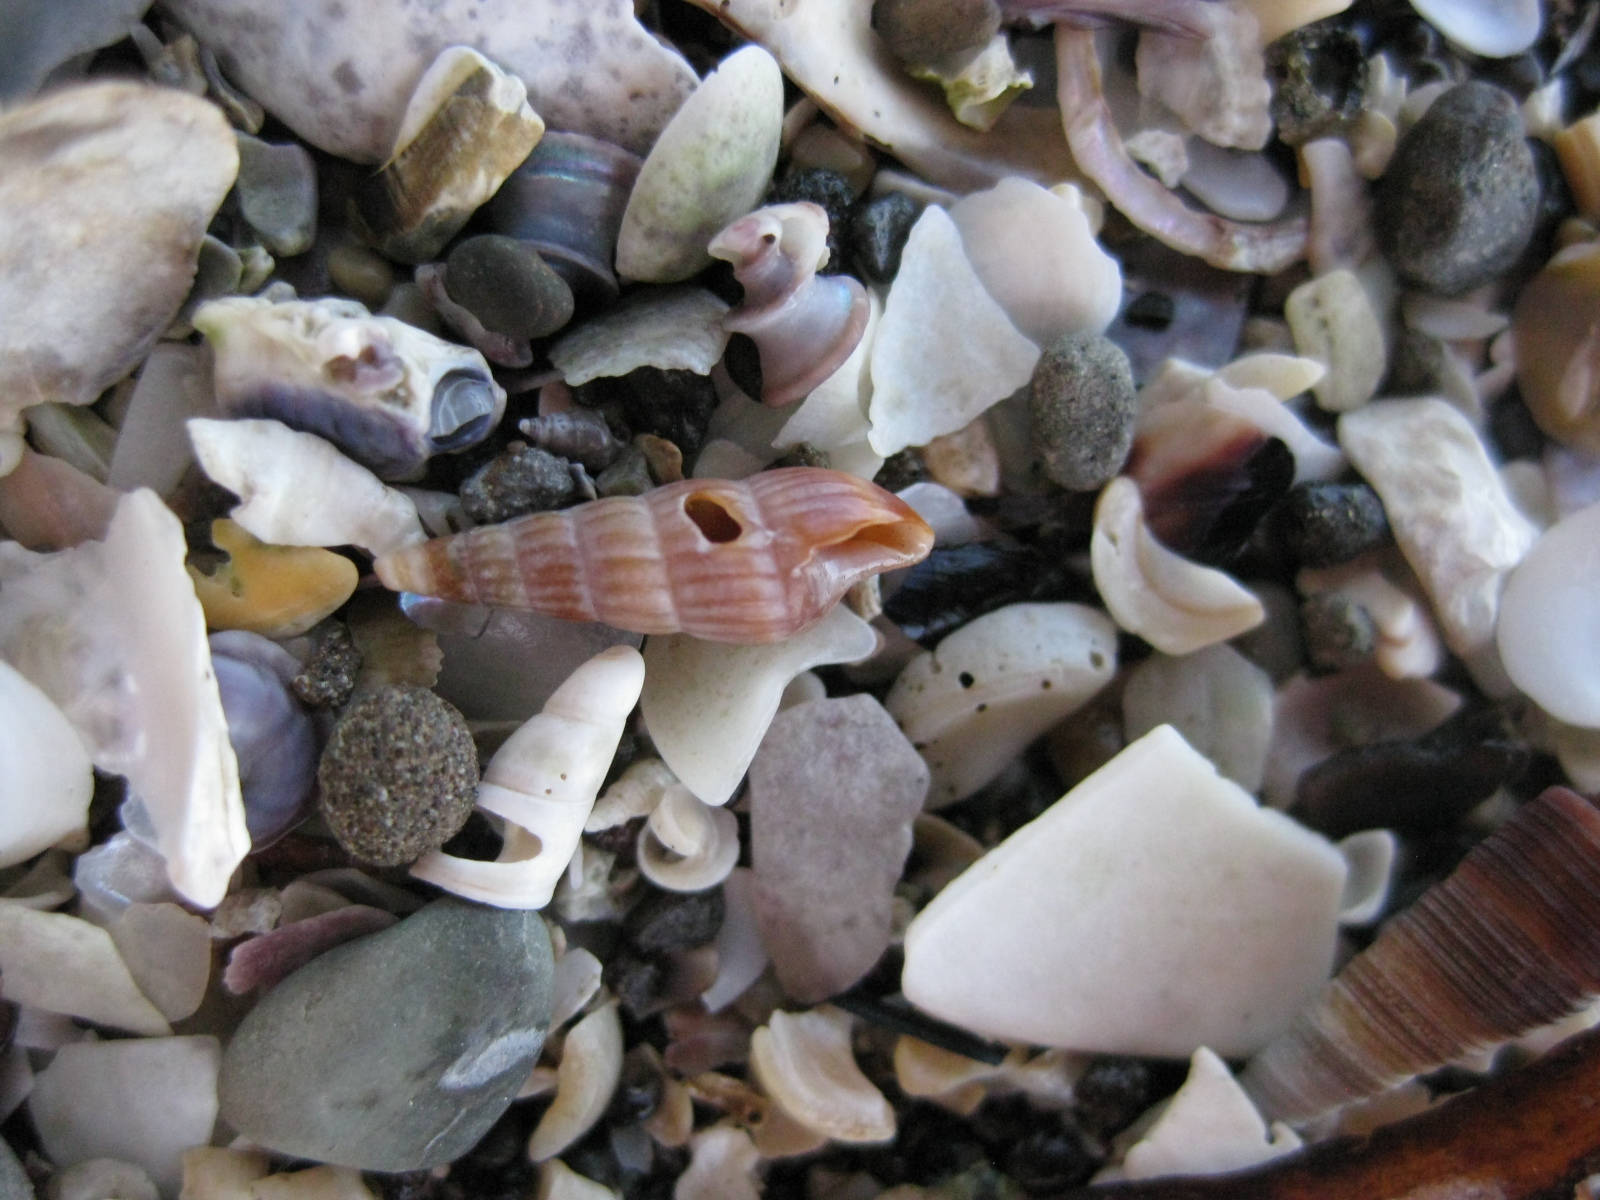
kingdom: Animalia
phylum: Mollusca
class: Gastropoda
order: Neogastropoda
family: Terebridae
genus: Duplicaria
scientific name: Duplicaria tristis
